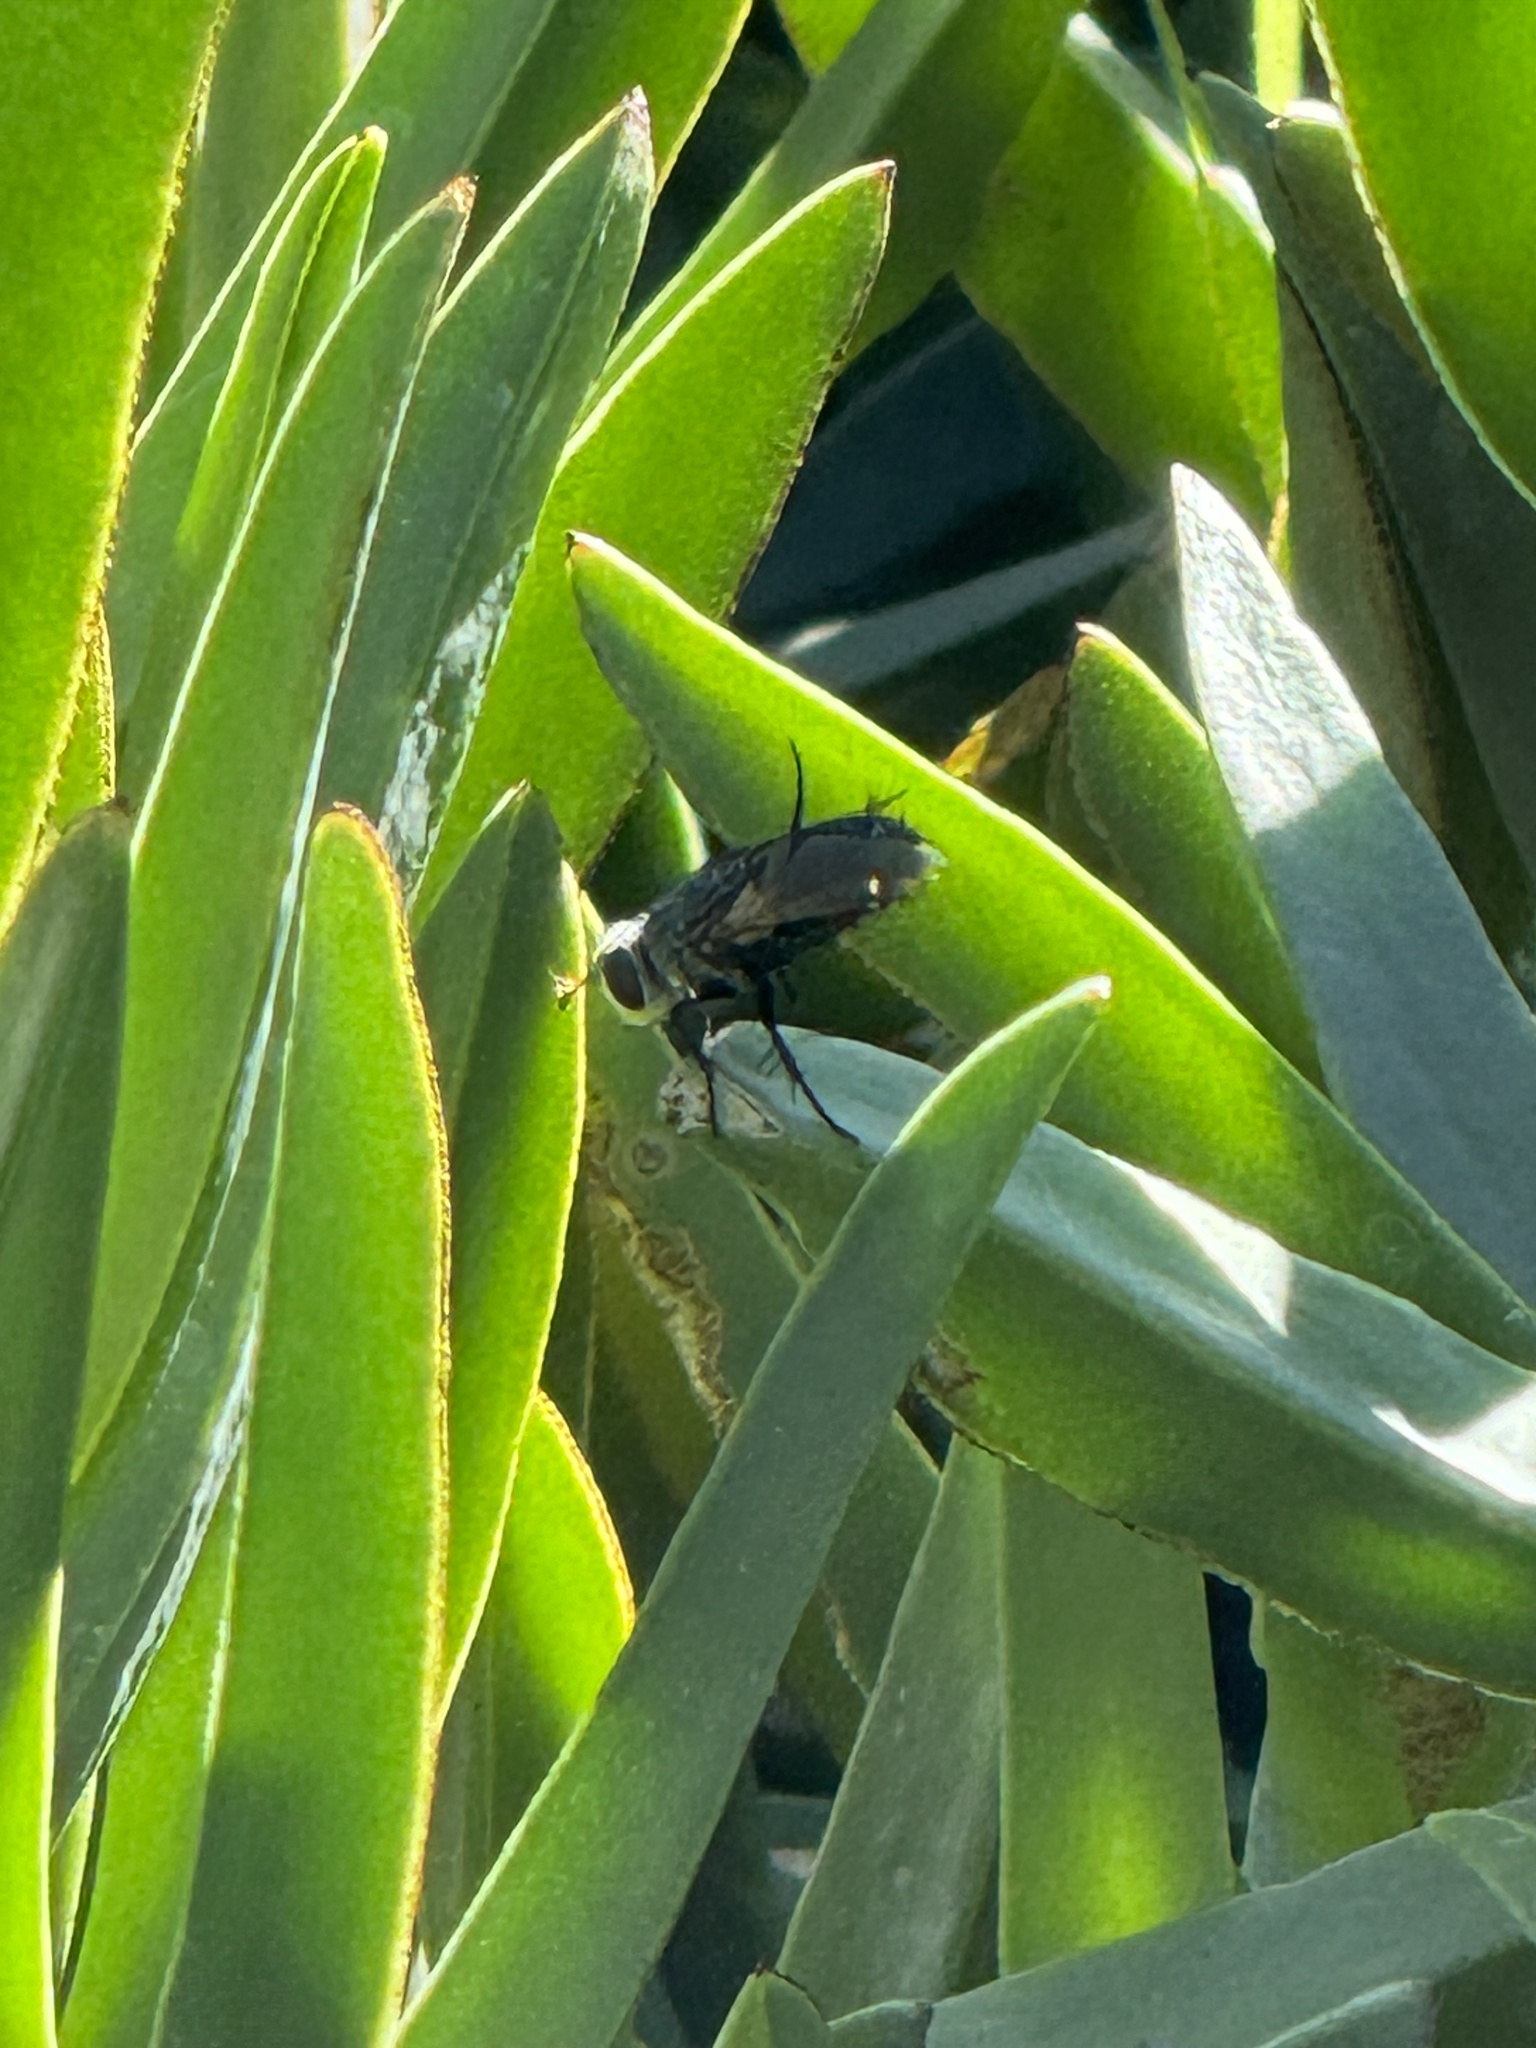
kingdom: Animalia
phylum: Arthropoda
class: Insecta
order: Diptera
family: Tachinidae
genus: Archytas
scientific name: Archytas apicifer
